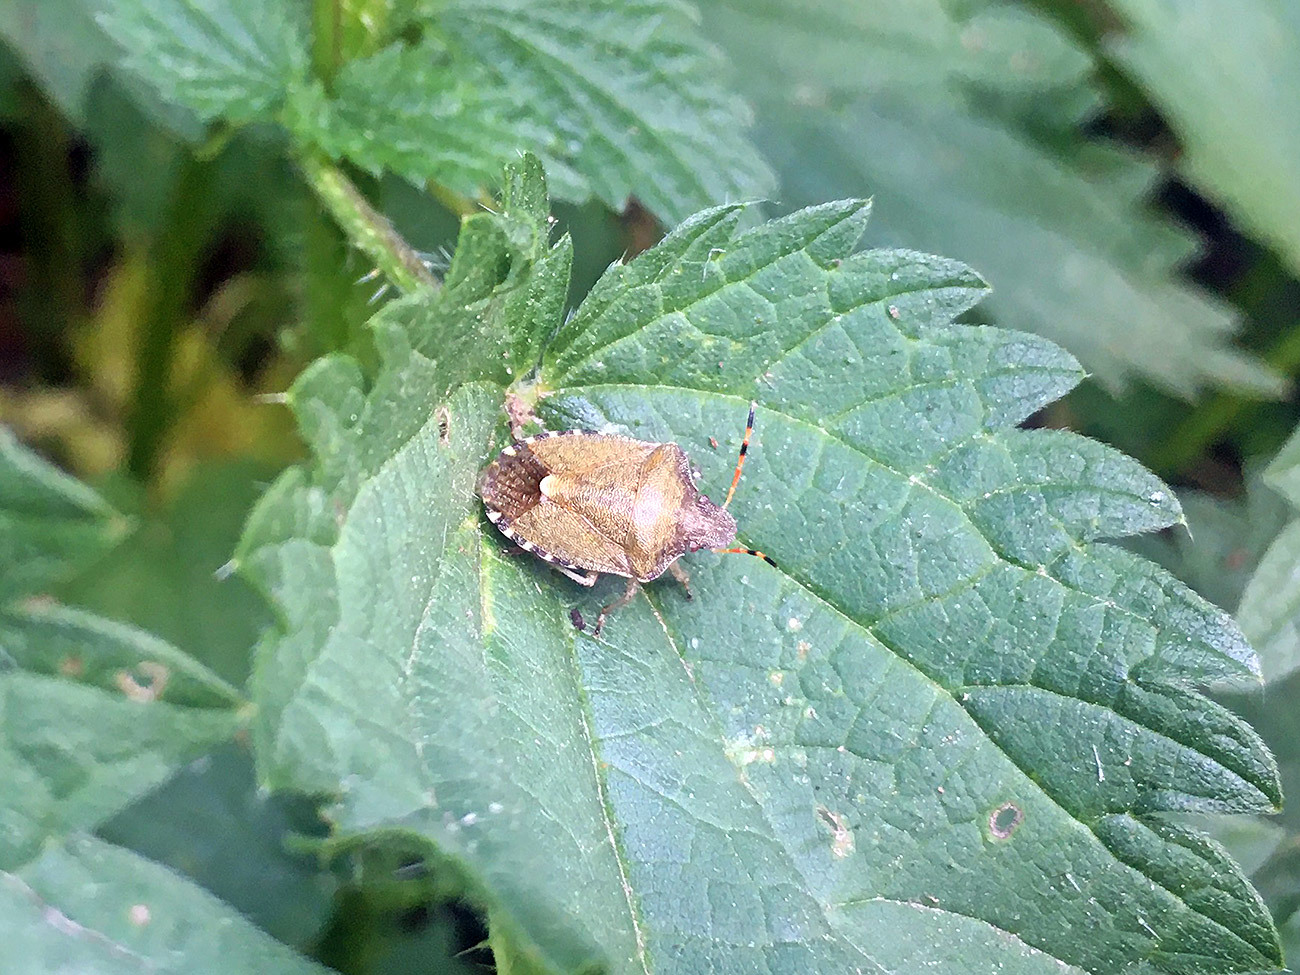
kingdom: Animalia
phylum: Arthropoda
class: Insecta
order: Hemiptera
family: Pentatomidae
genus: Holcostethus
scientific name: Holcostethus strictus
